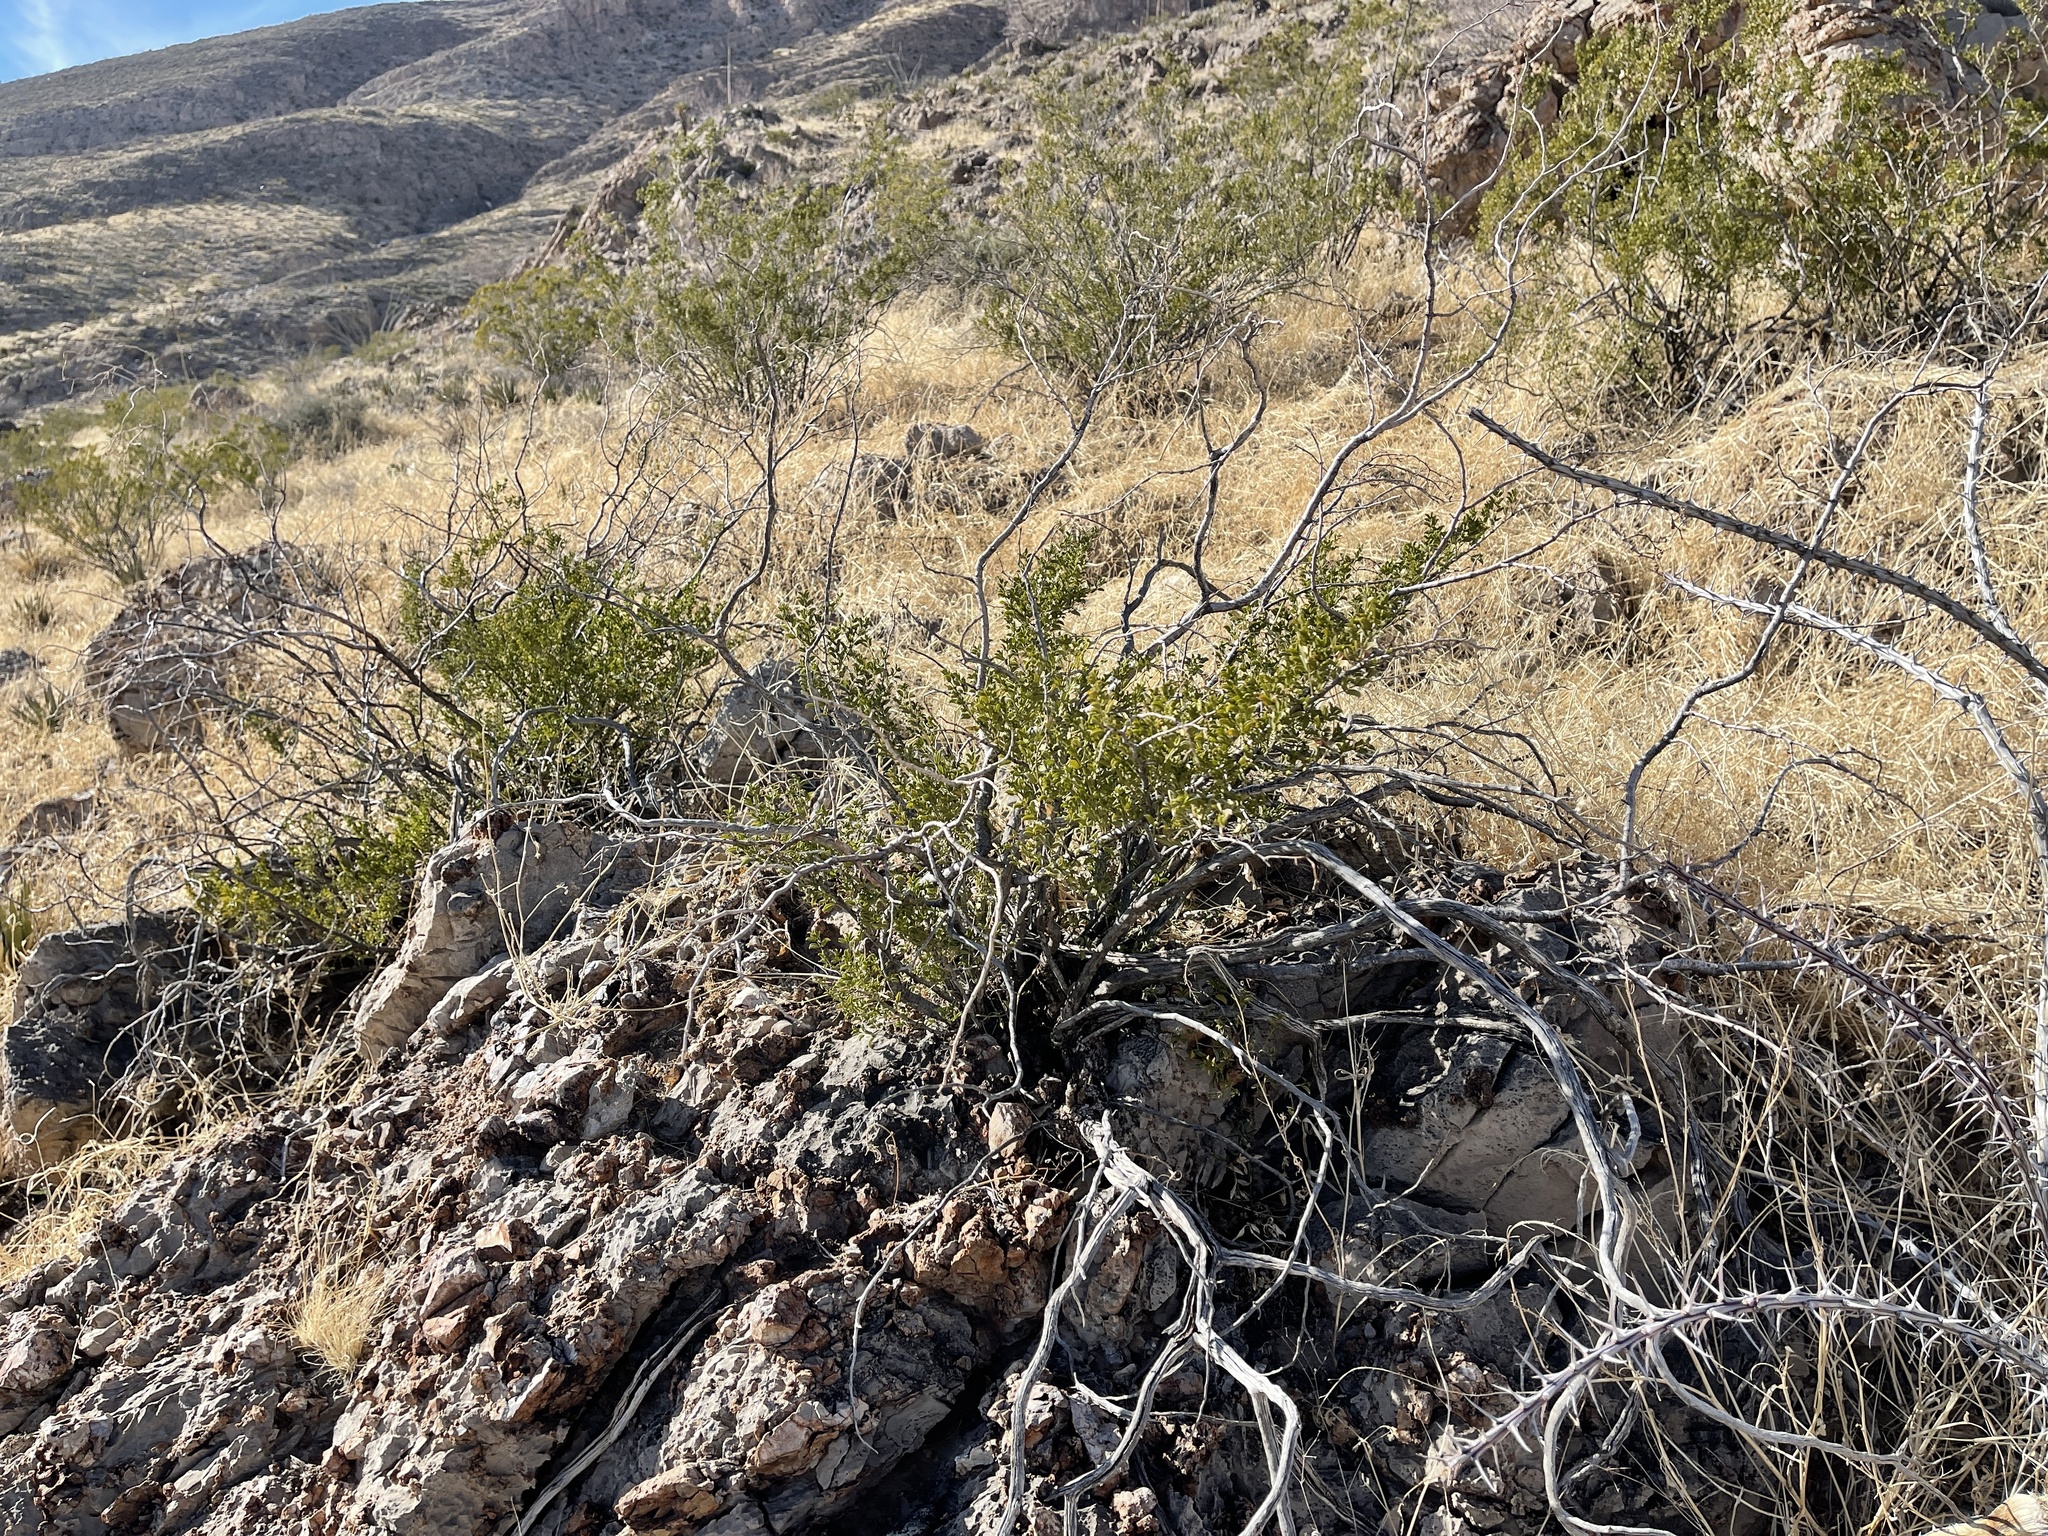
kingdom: Plantae
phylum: Tracheophyta
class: Magnoliopsida
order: Zygophyllales
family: Zygophyllaceae
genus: Larrea
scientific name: Larrea tridentata
